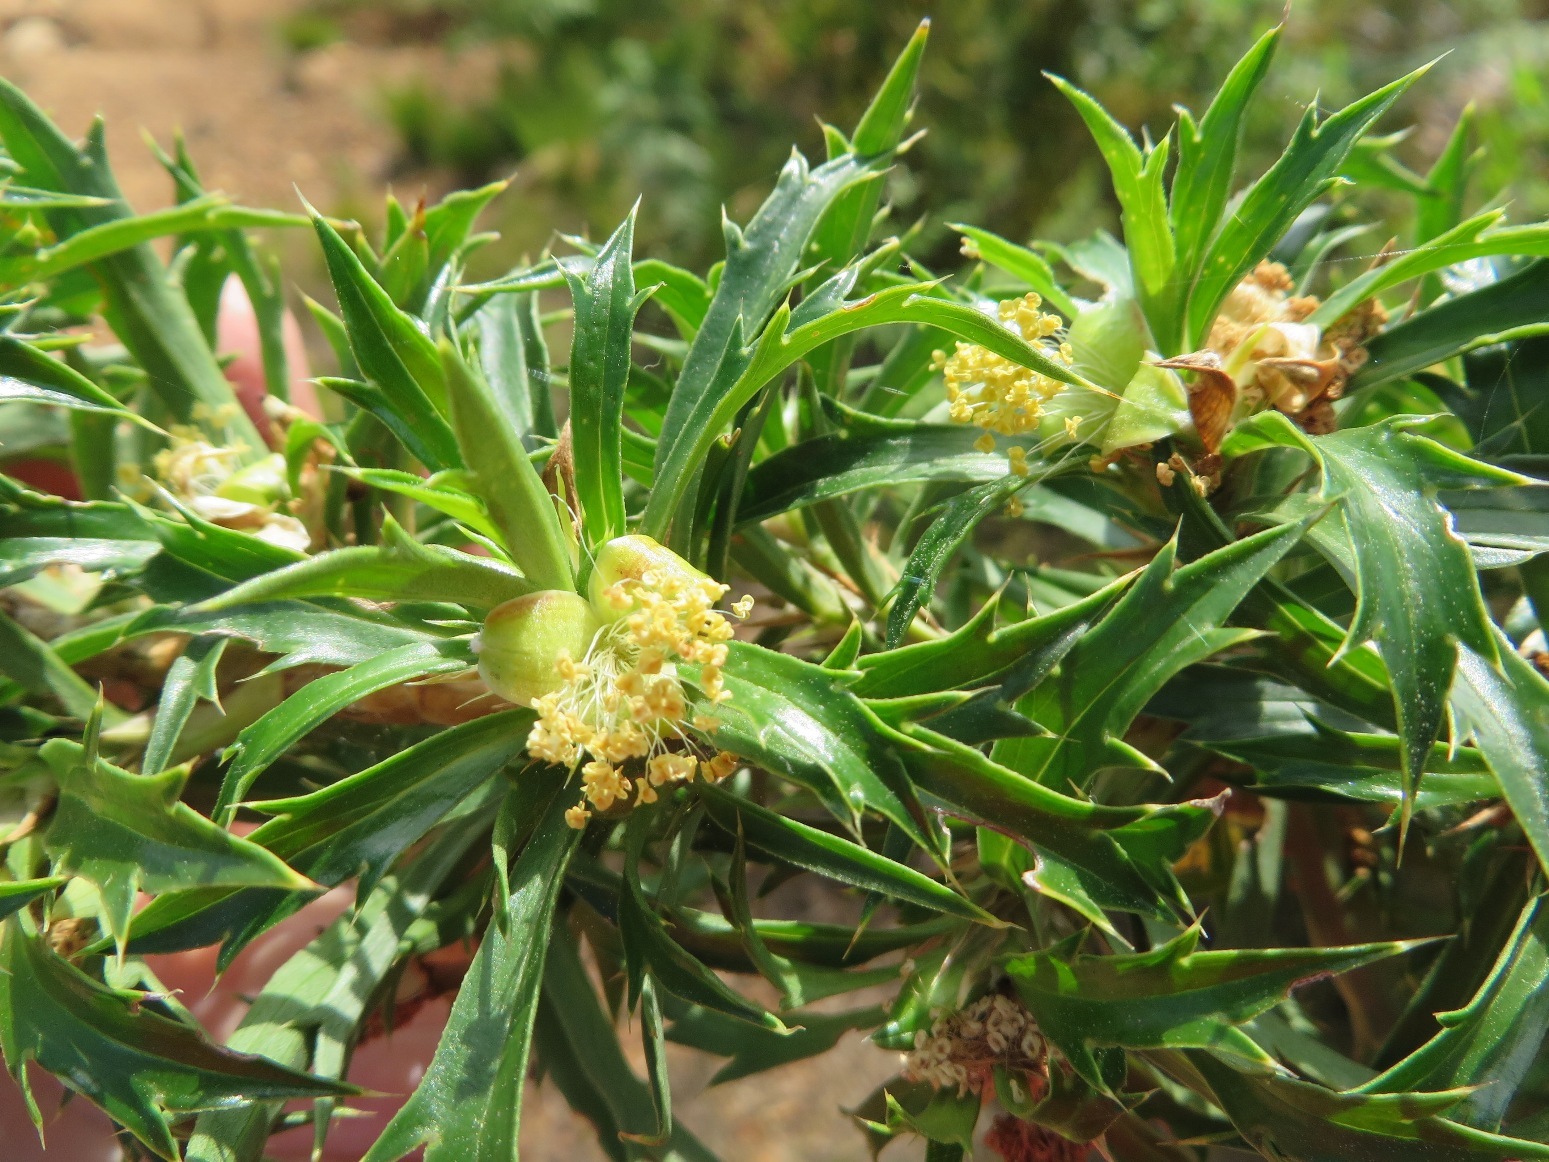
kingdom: Plantae
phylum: Tracheophyta
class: Magnoliopsida
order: Rosales
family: Rosaceae
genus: Cliffortia
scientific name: Cliffortia phillipsii
